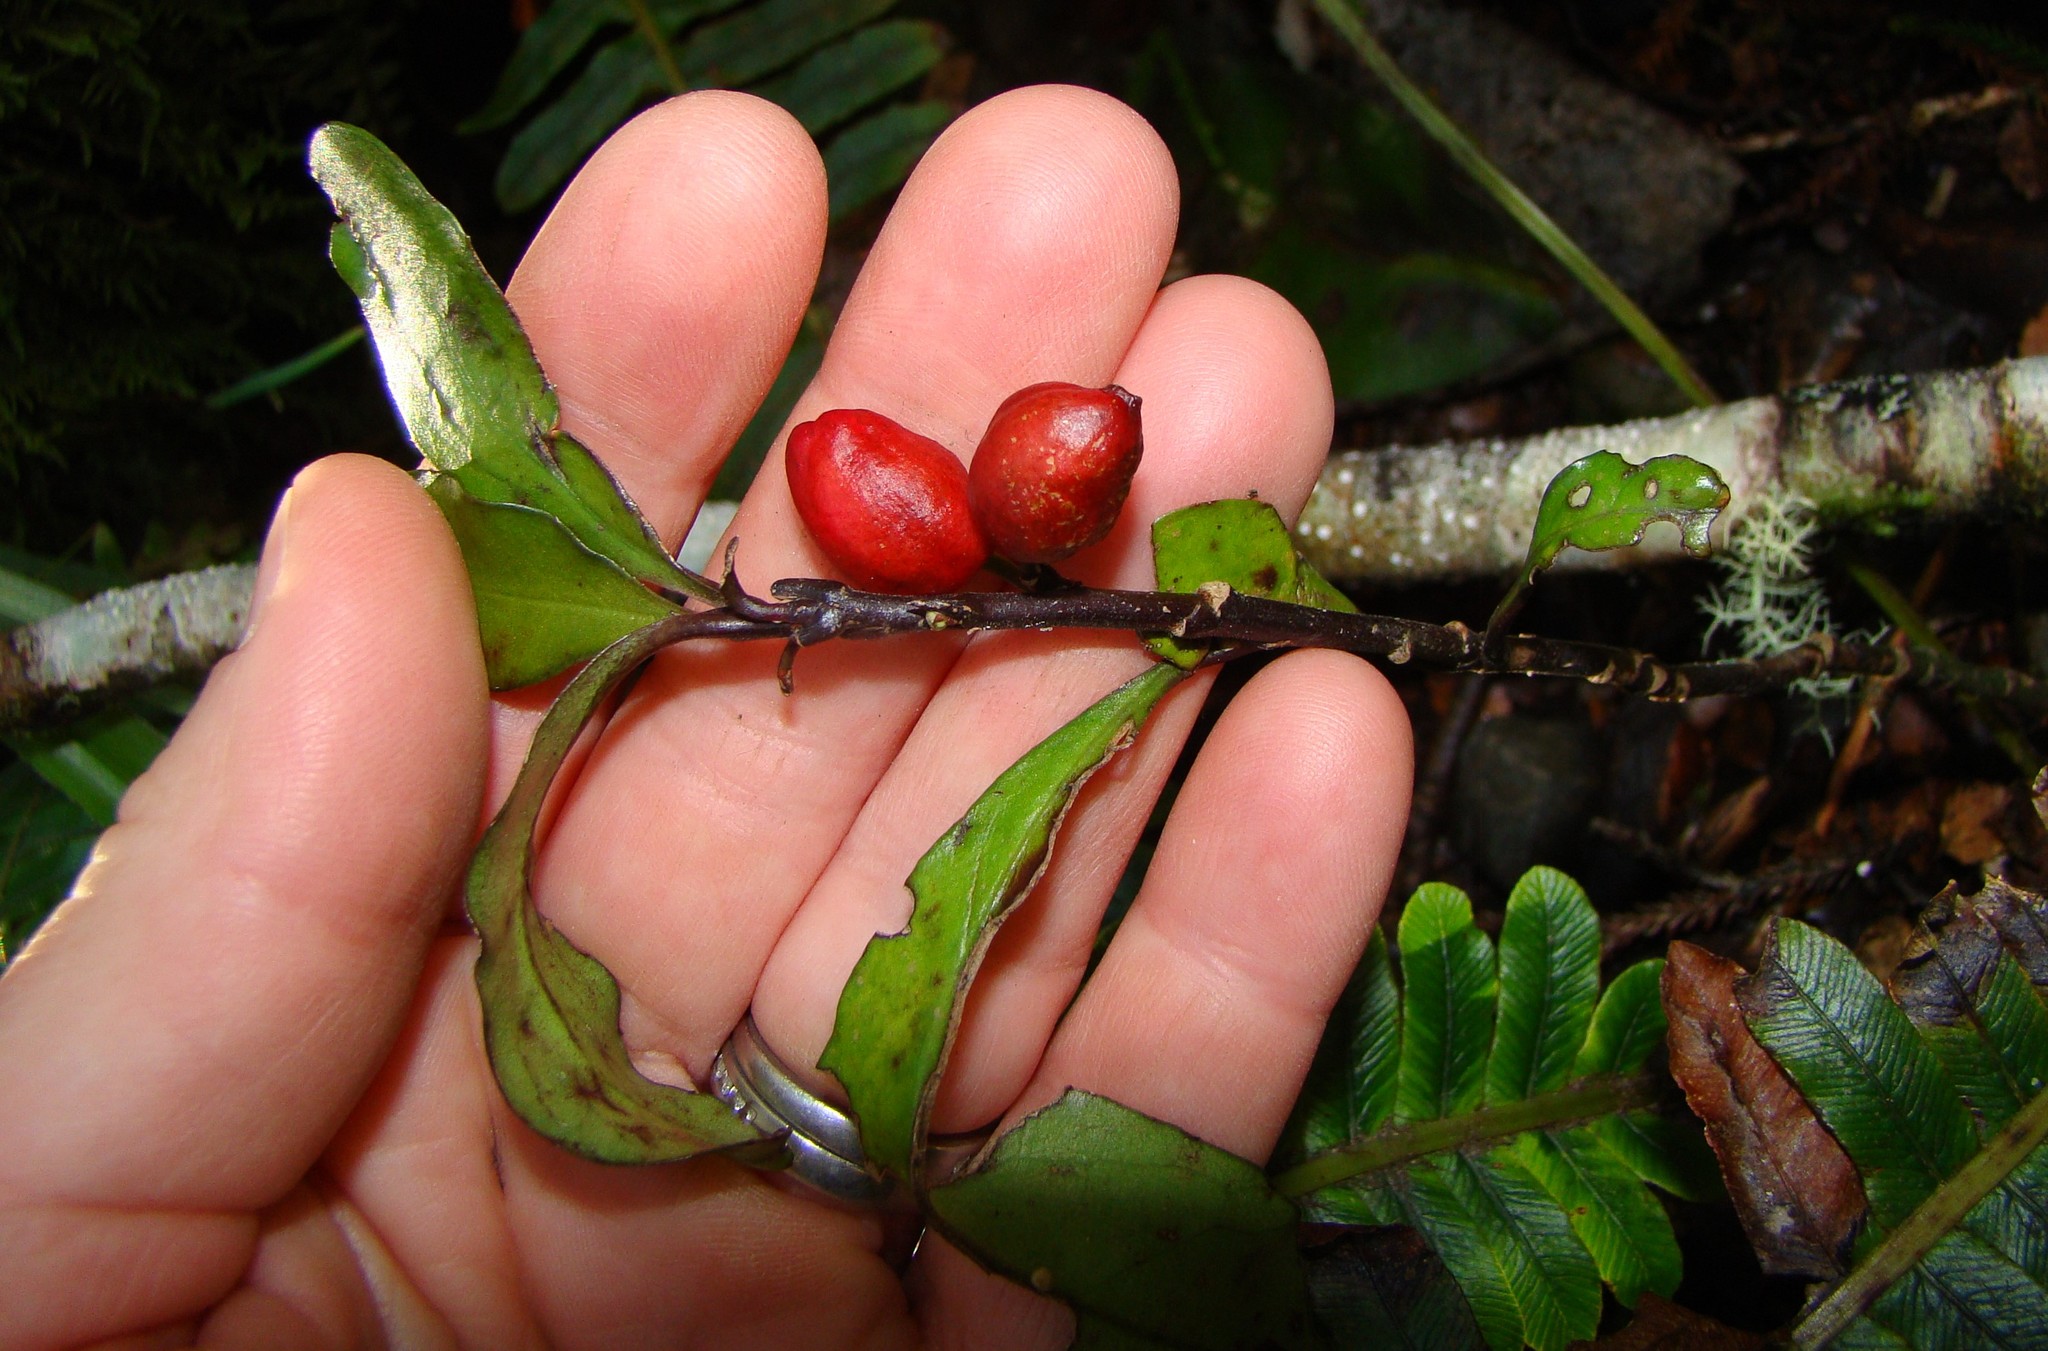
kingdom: Plantae
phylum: Tracheophyta
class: Magnoliopsida
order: Asterales
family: Alseuosmiaceae
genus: Alseuosmia
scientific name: Alseuosmia pusilla
